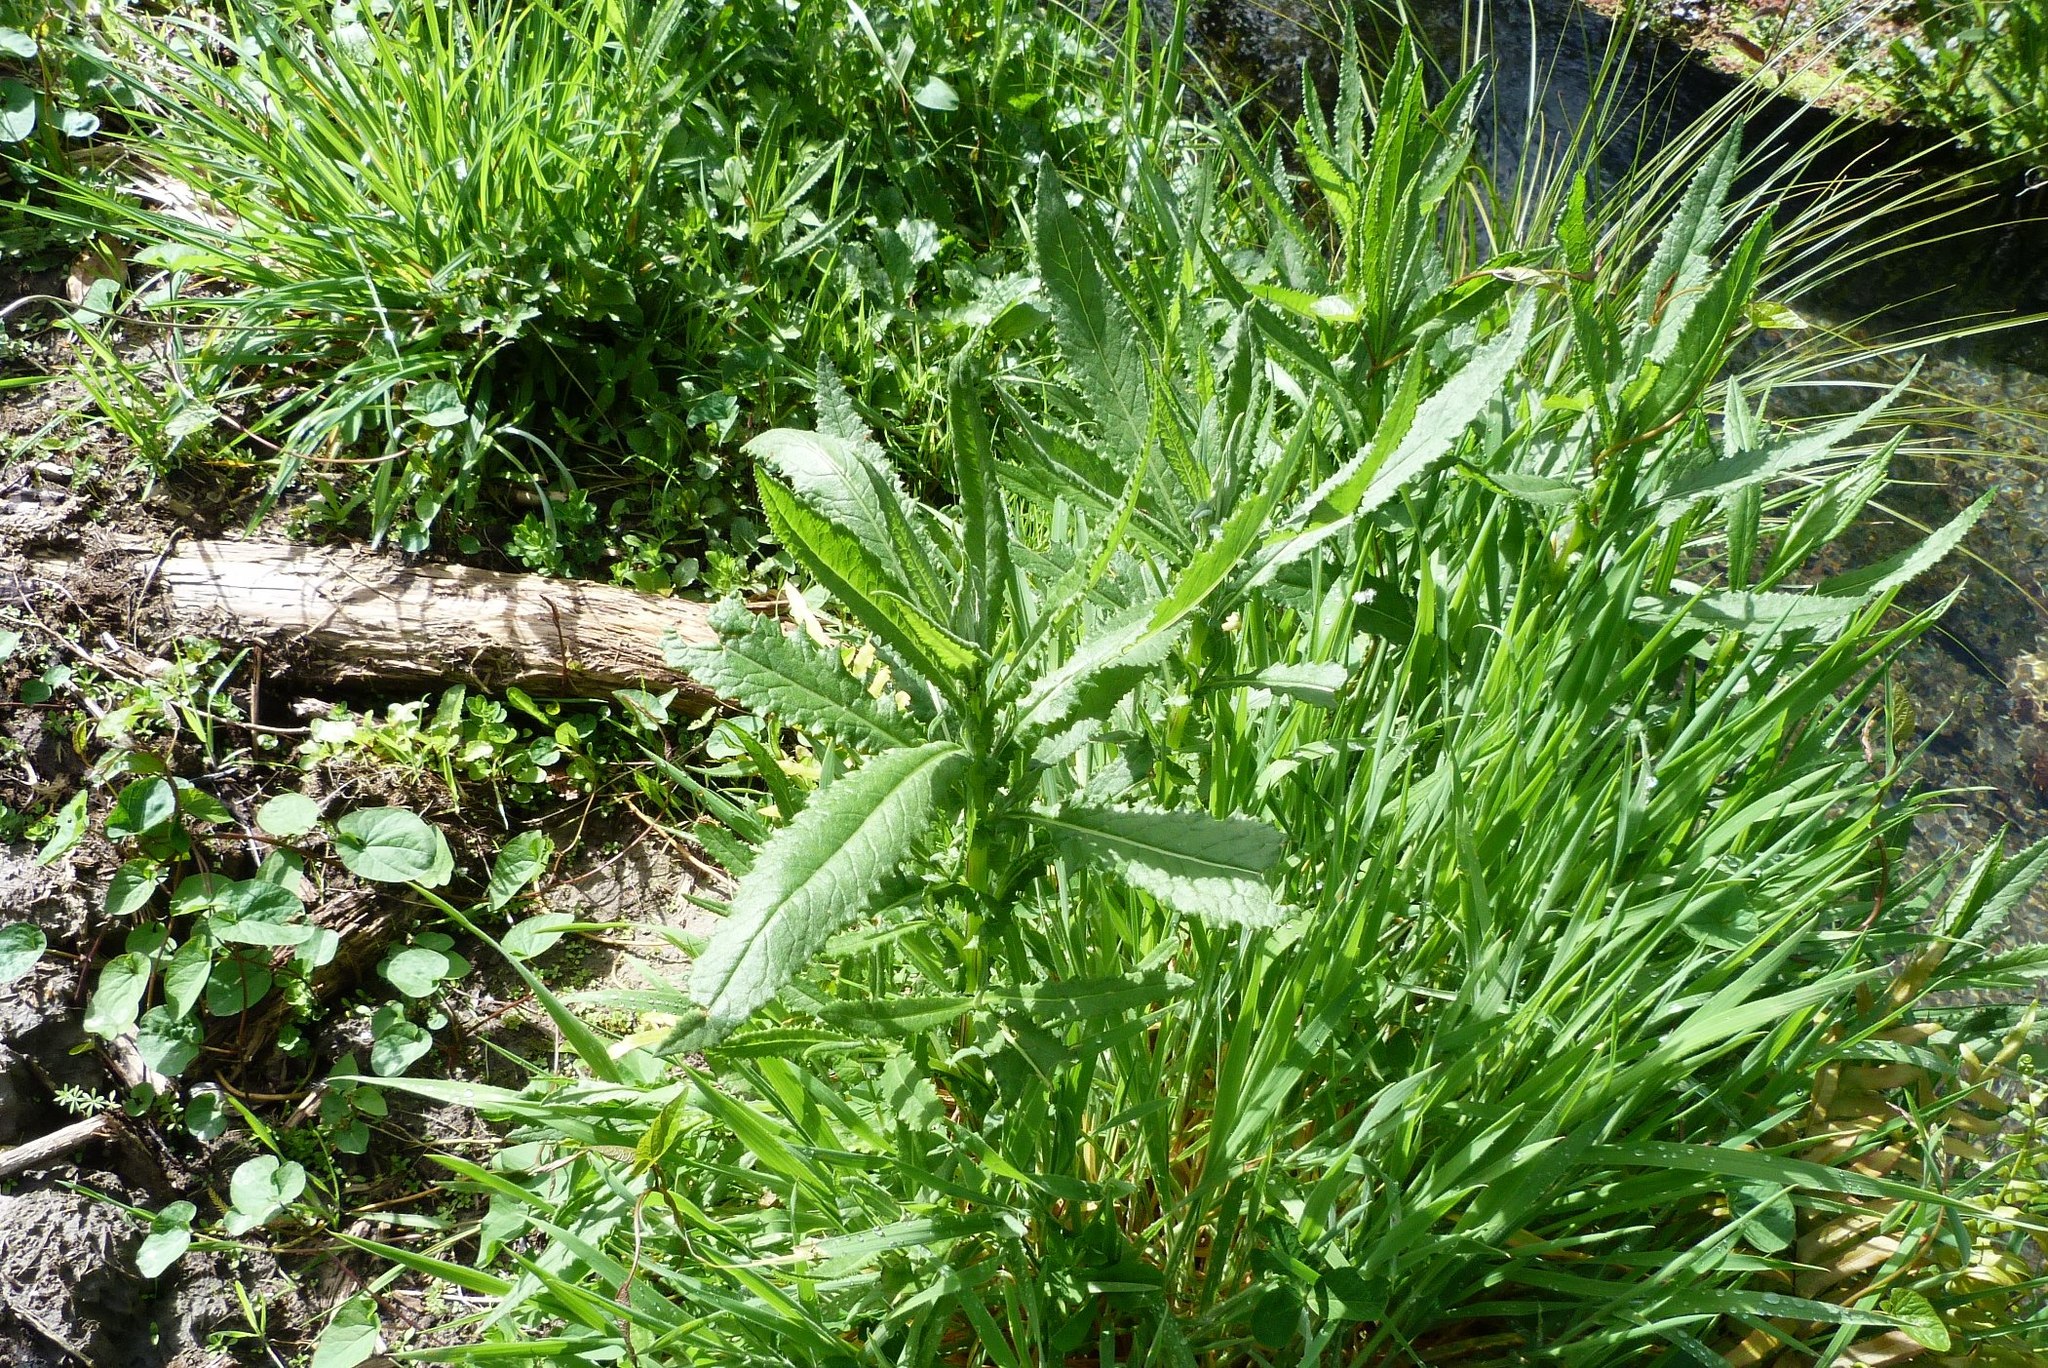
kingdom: Plantae
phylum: Tracheophyta
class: Magnoliopsida
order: Asterales
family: Asteraceae
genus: Senecio
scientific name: Senecio minimus
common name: Toothed fireweed
